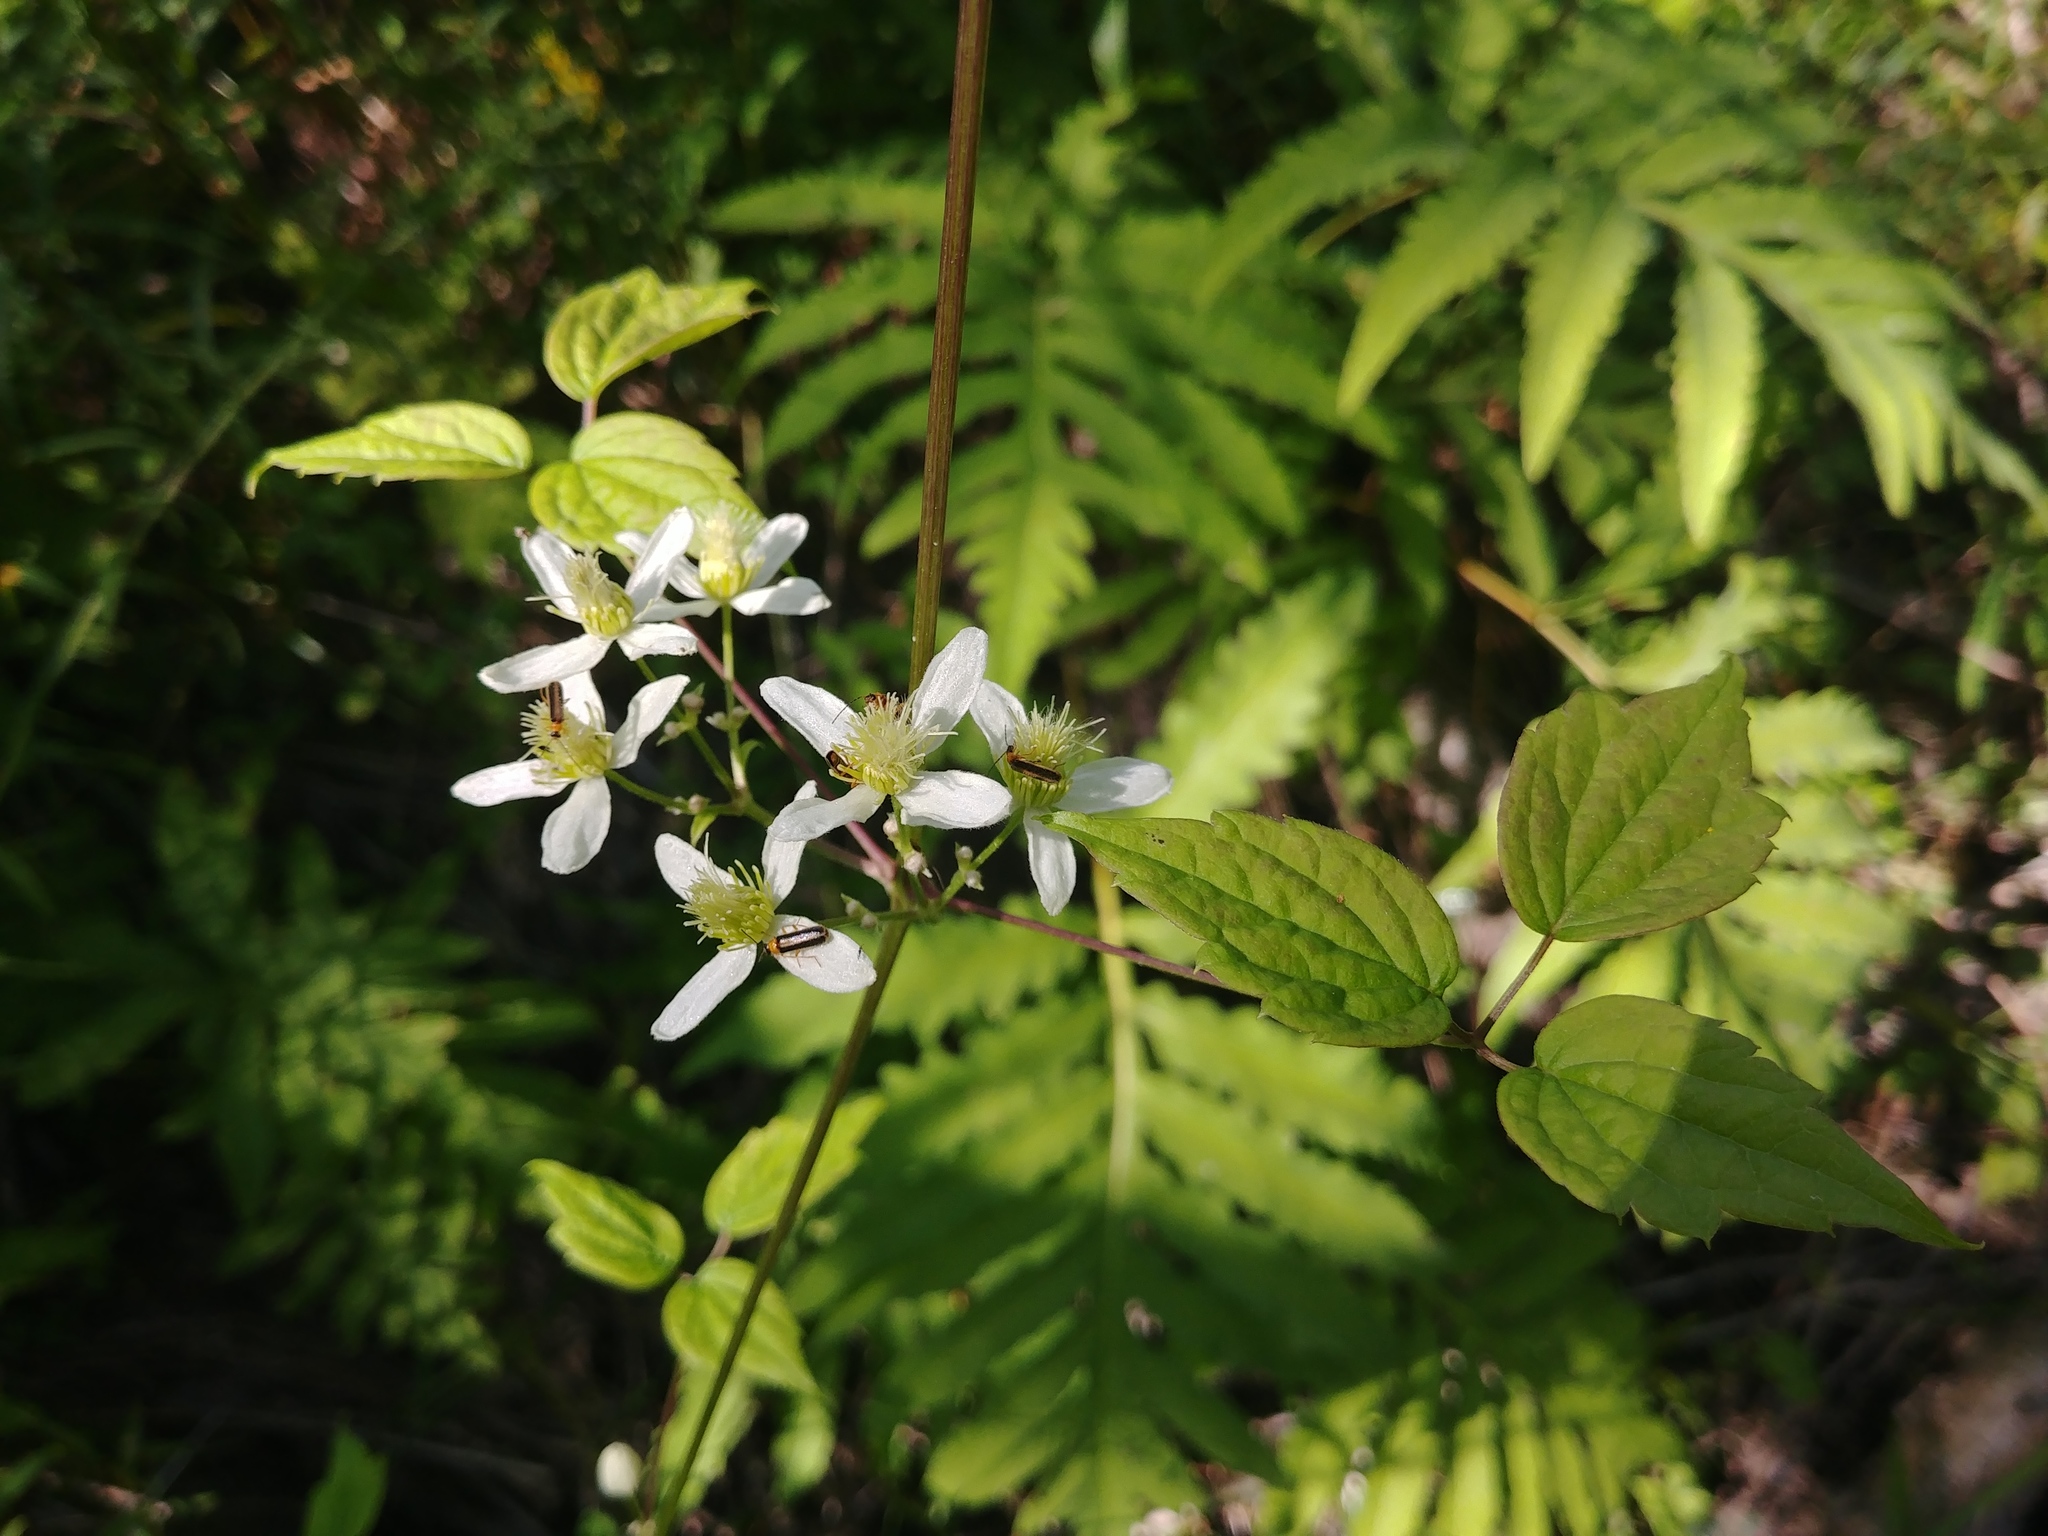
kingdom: Plantae
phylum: Tracheophyta
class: Magnoliopsida
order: Ranunculales
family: Ranunculaceae
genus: Clematis
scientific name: Clematis virginiana
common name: Virgin's-bower
